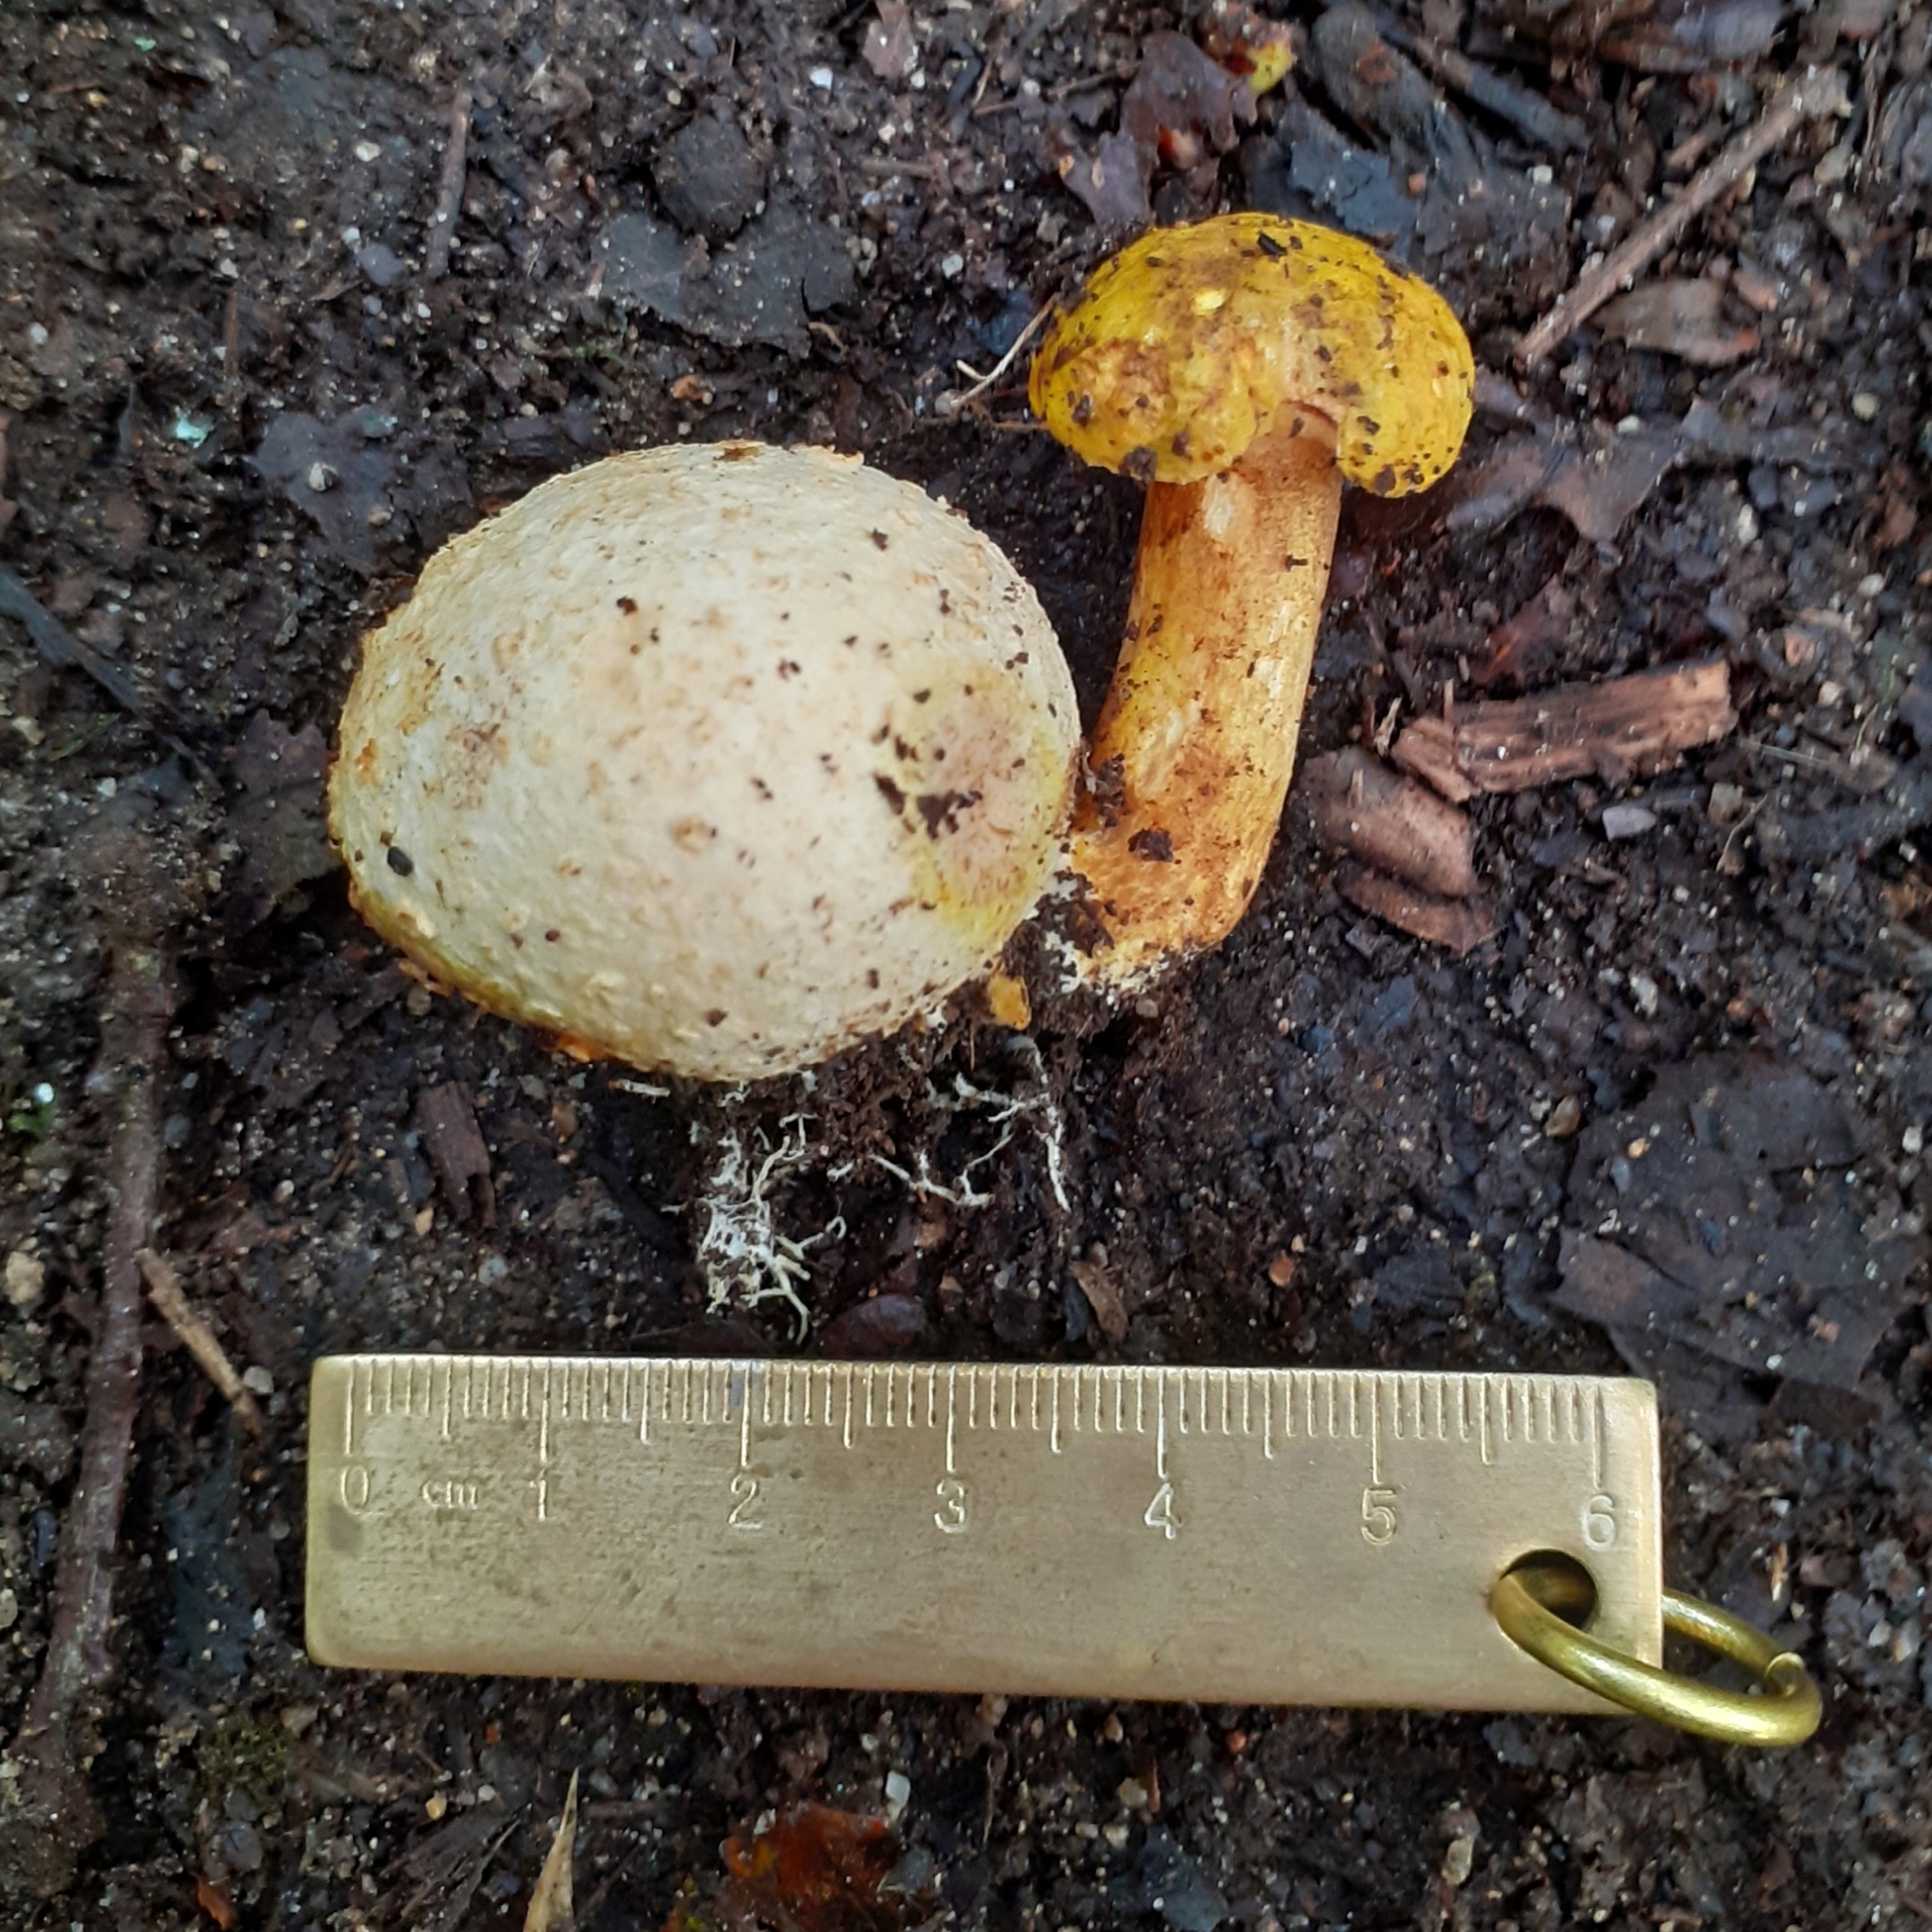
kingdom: Fungi
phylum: Basidiomycota
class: Agaricomycetes
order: Boletales
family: Boletaceae
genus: Pseudoboletus
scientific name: Pseudoboletus parasiticus
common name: Parasitic bolete
